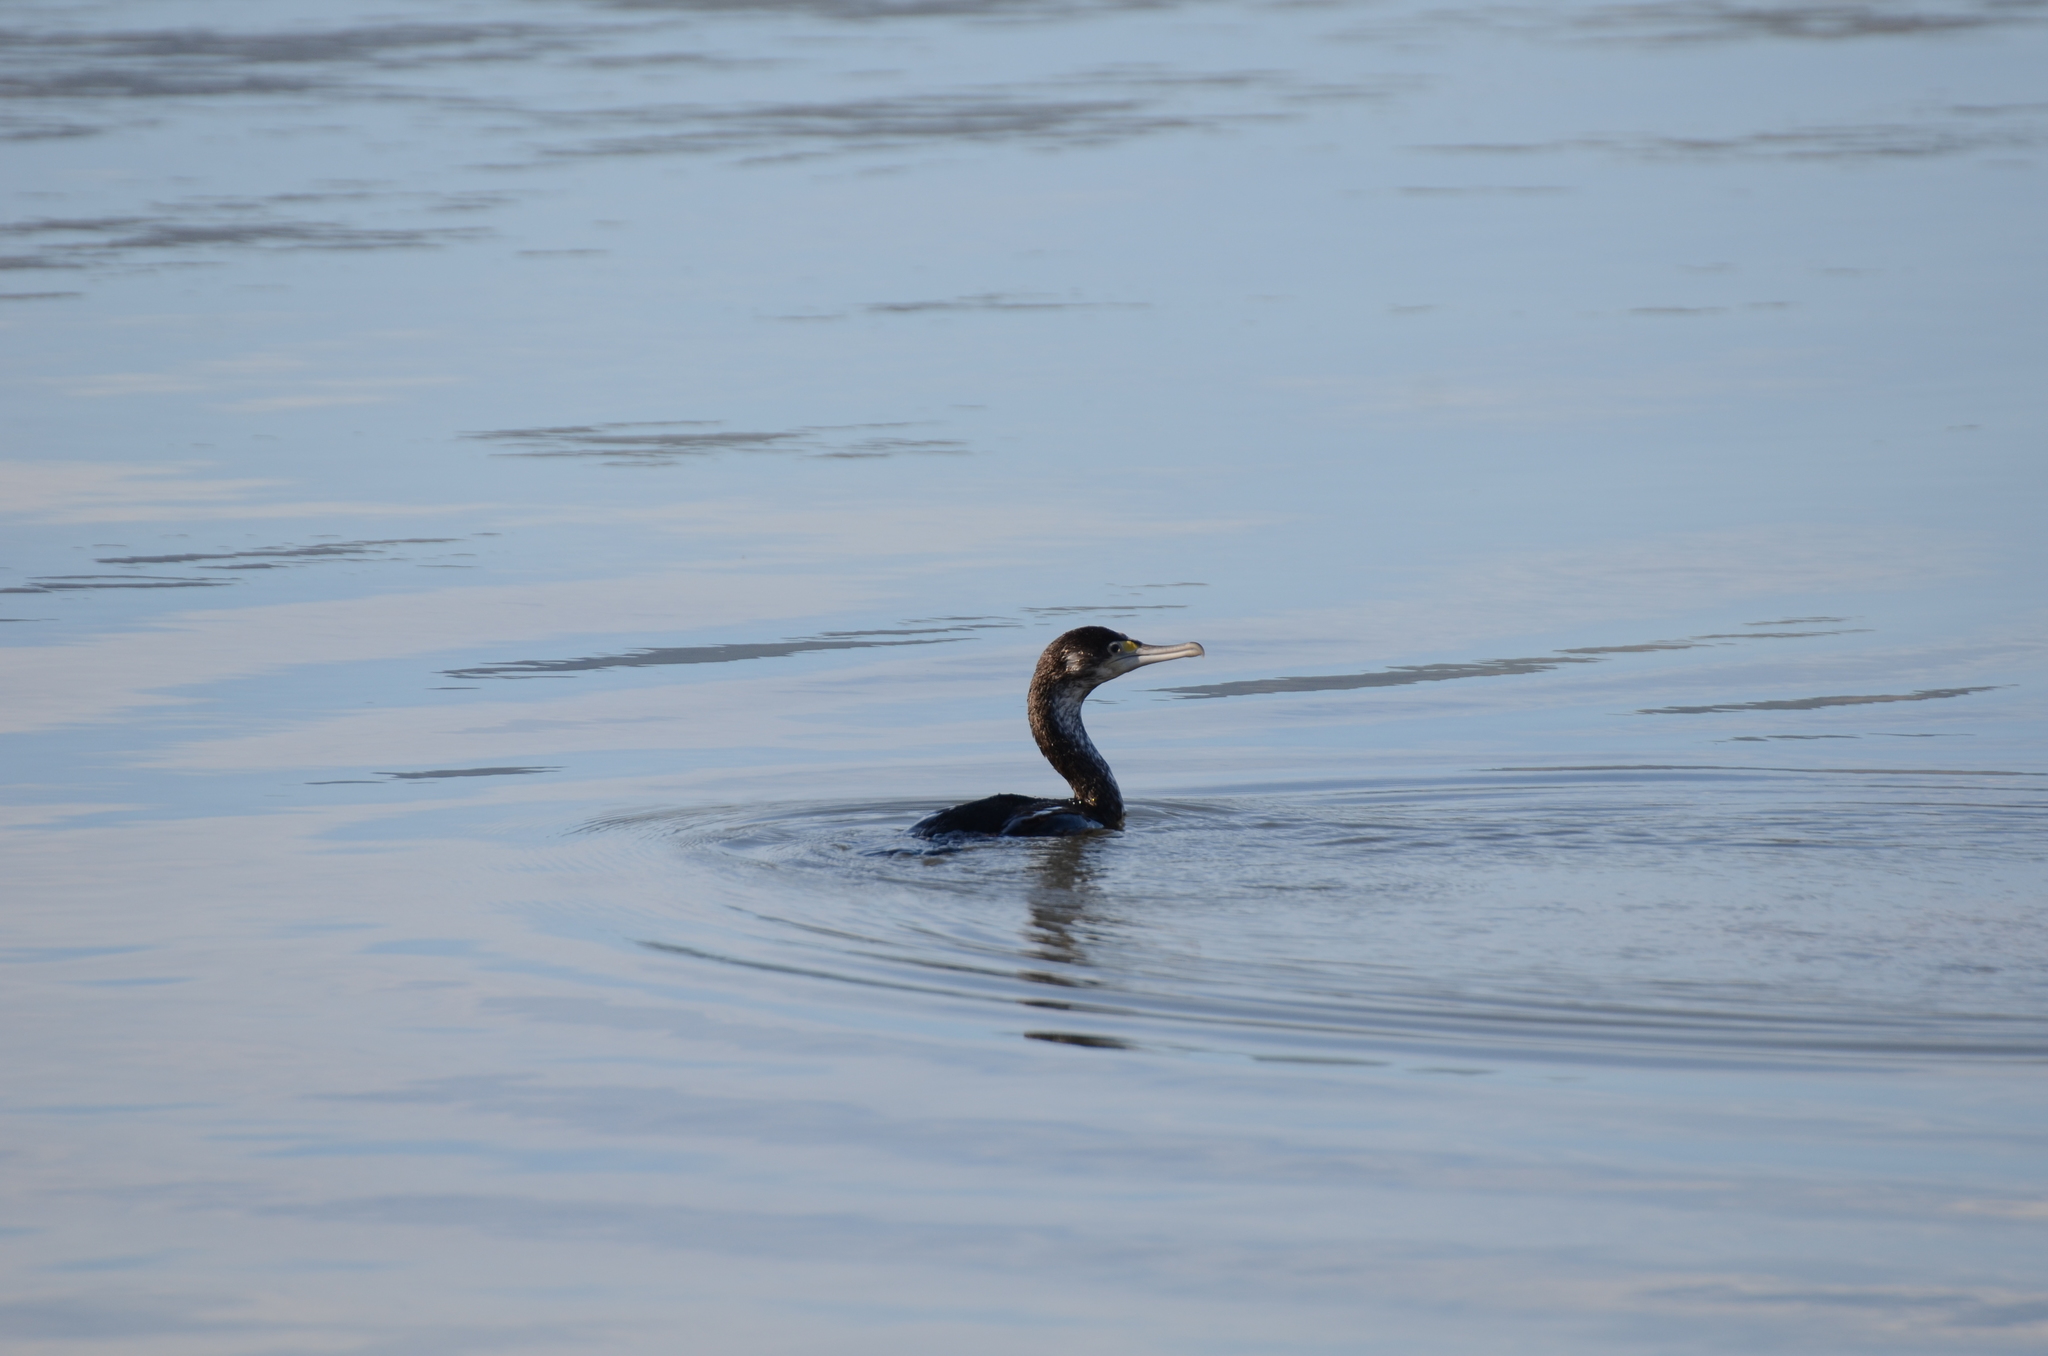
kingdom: Animalia
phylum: Chordata
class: Aves
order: Suliformes
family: Phalacrocoracidae
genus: Phalacrocorax
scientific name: Phalacrocorax varius
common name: Pied cormorant
